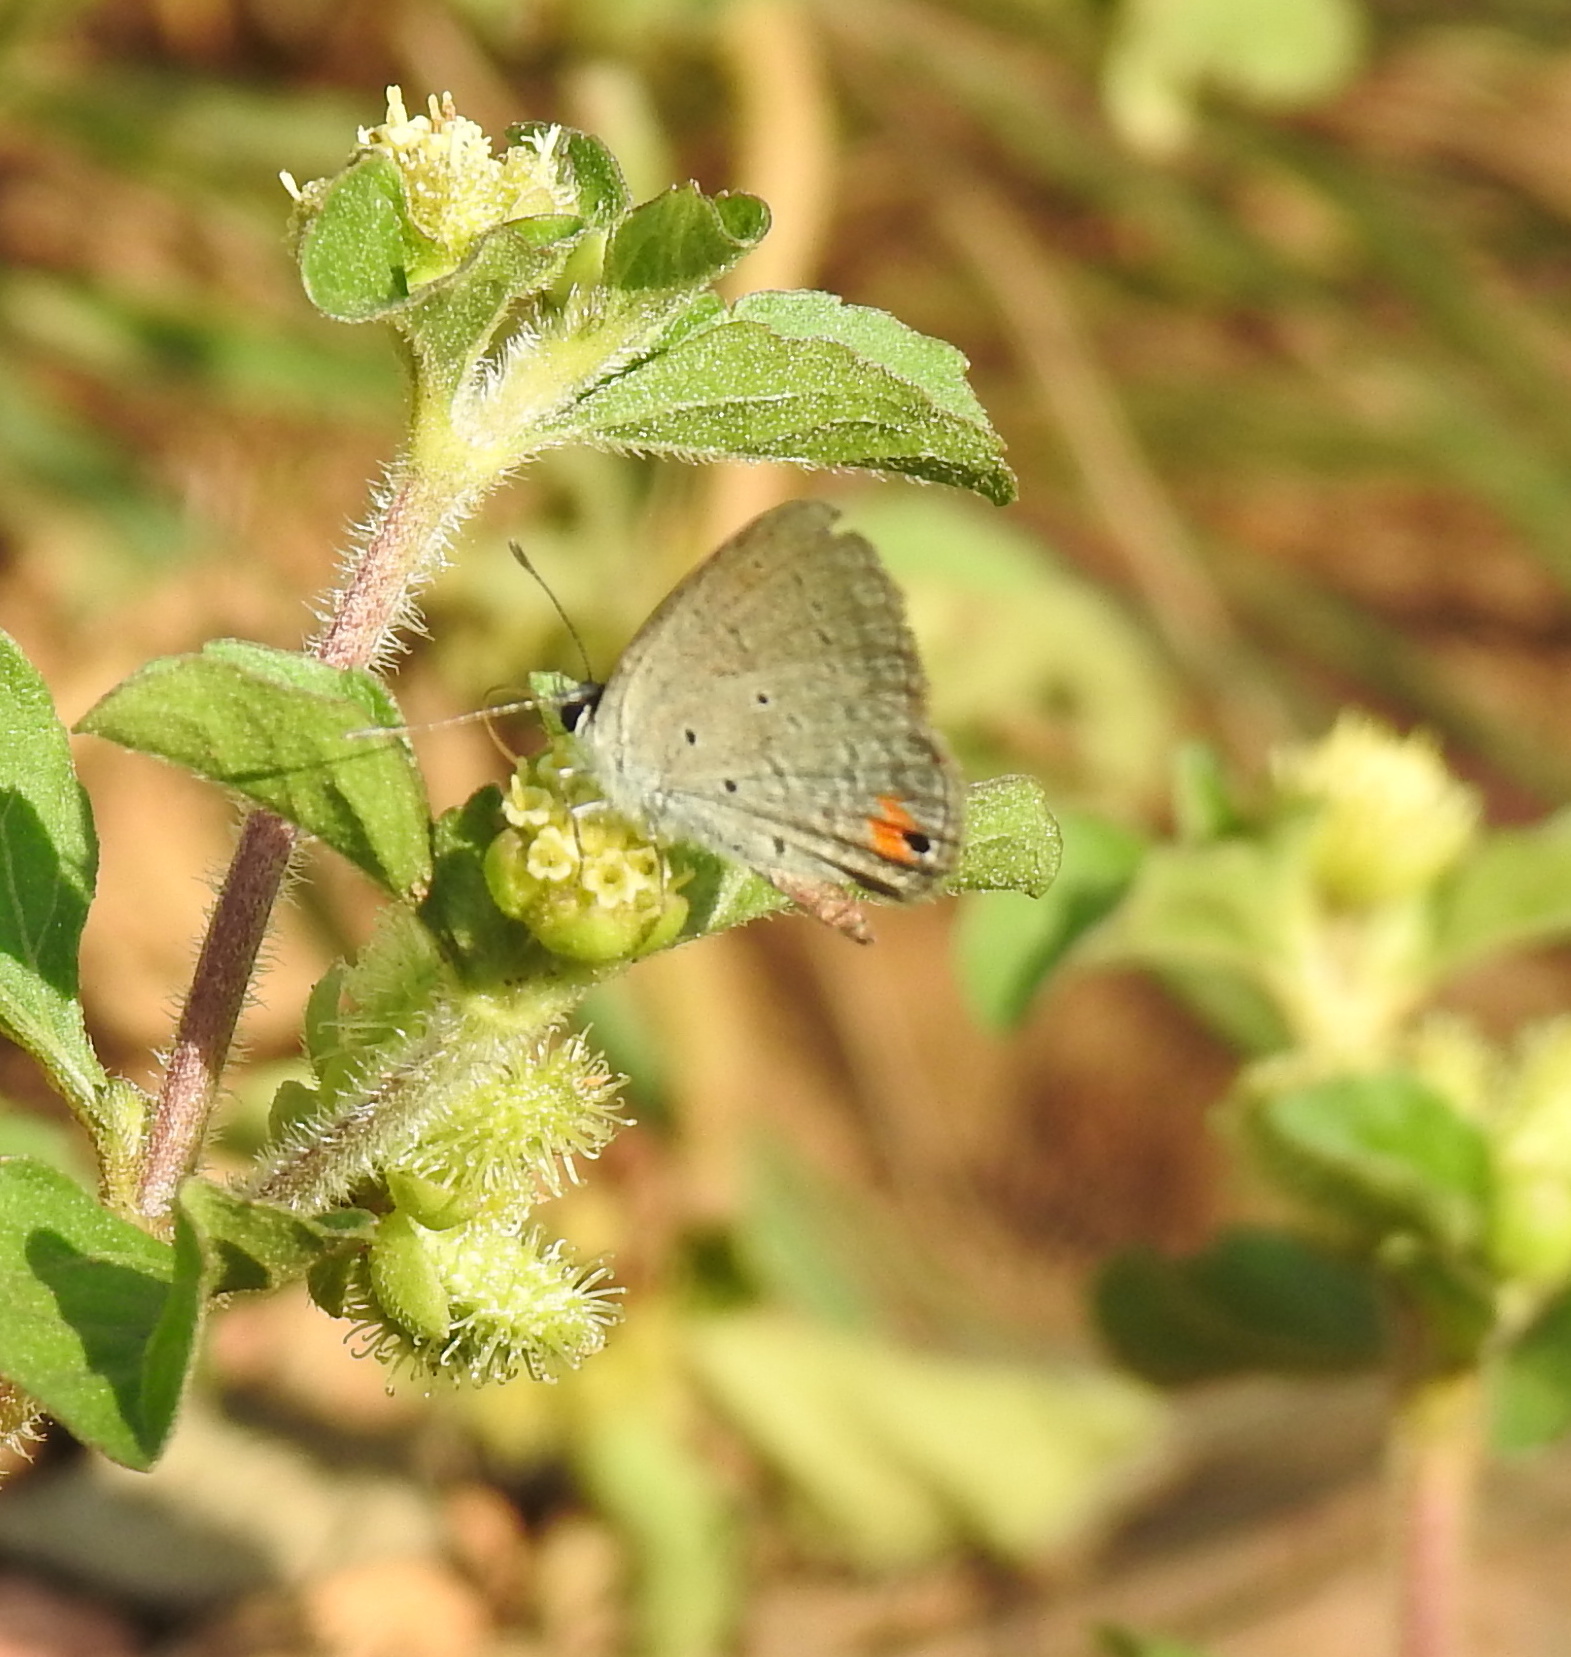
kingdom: Animalia
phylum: Arthropoda
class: Insecta
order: Lepidoptera
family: Lycaenidae
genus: Eicochrysops
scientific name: Eicochrysops messapus
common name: Cupreous blue
